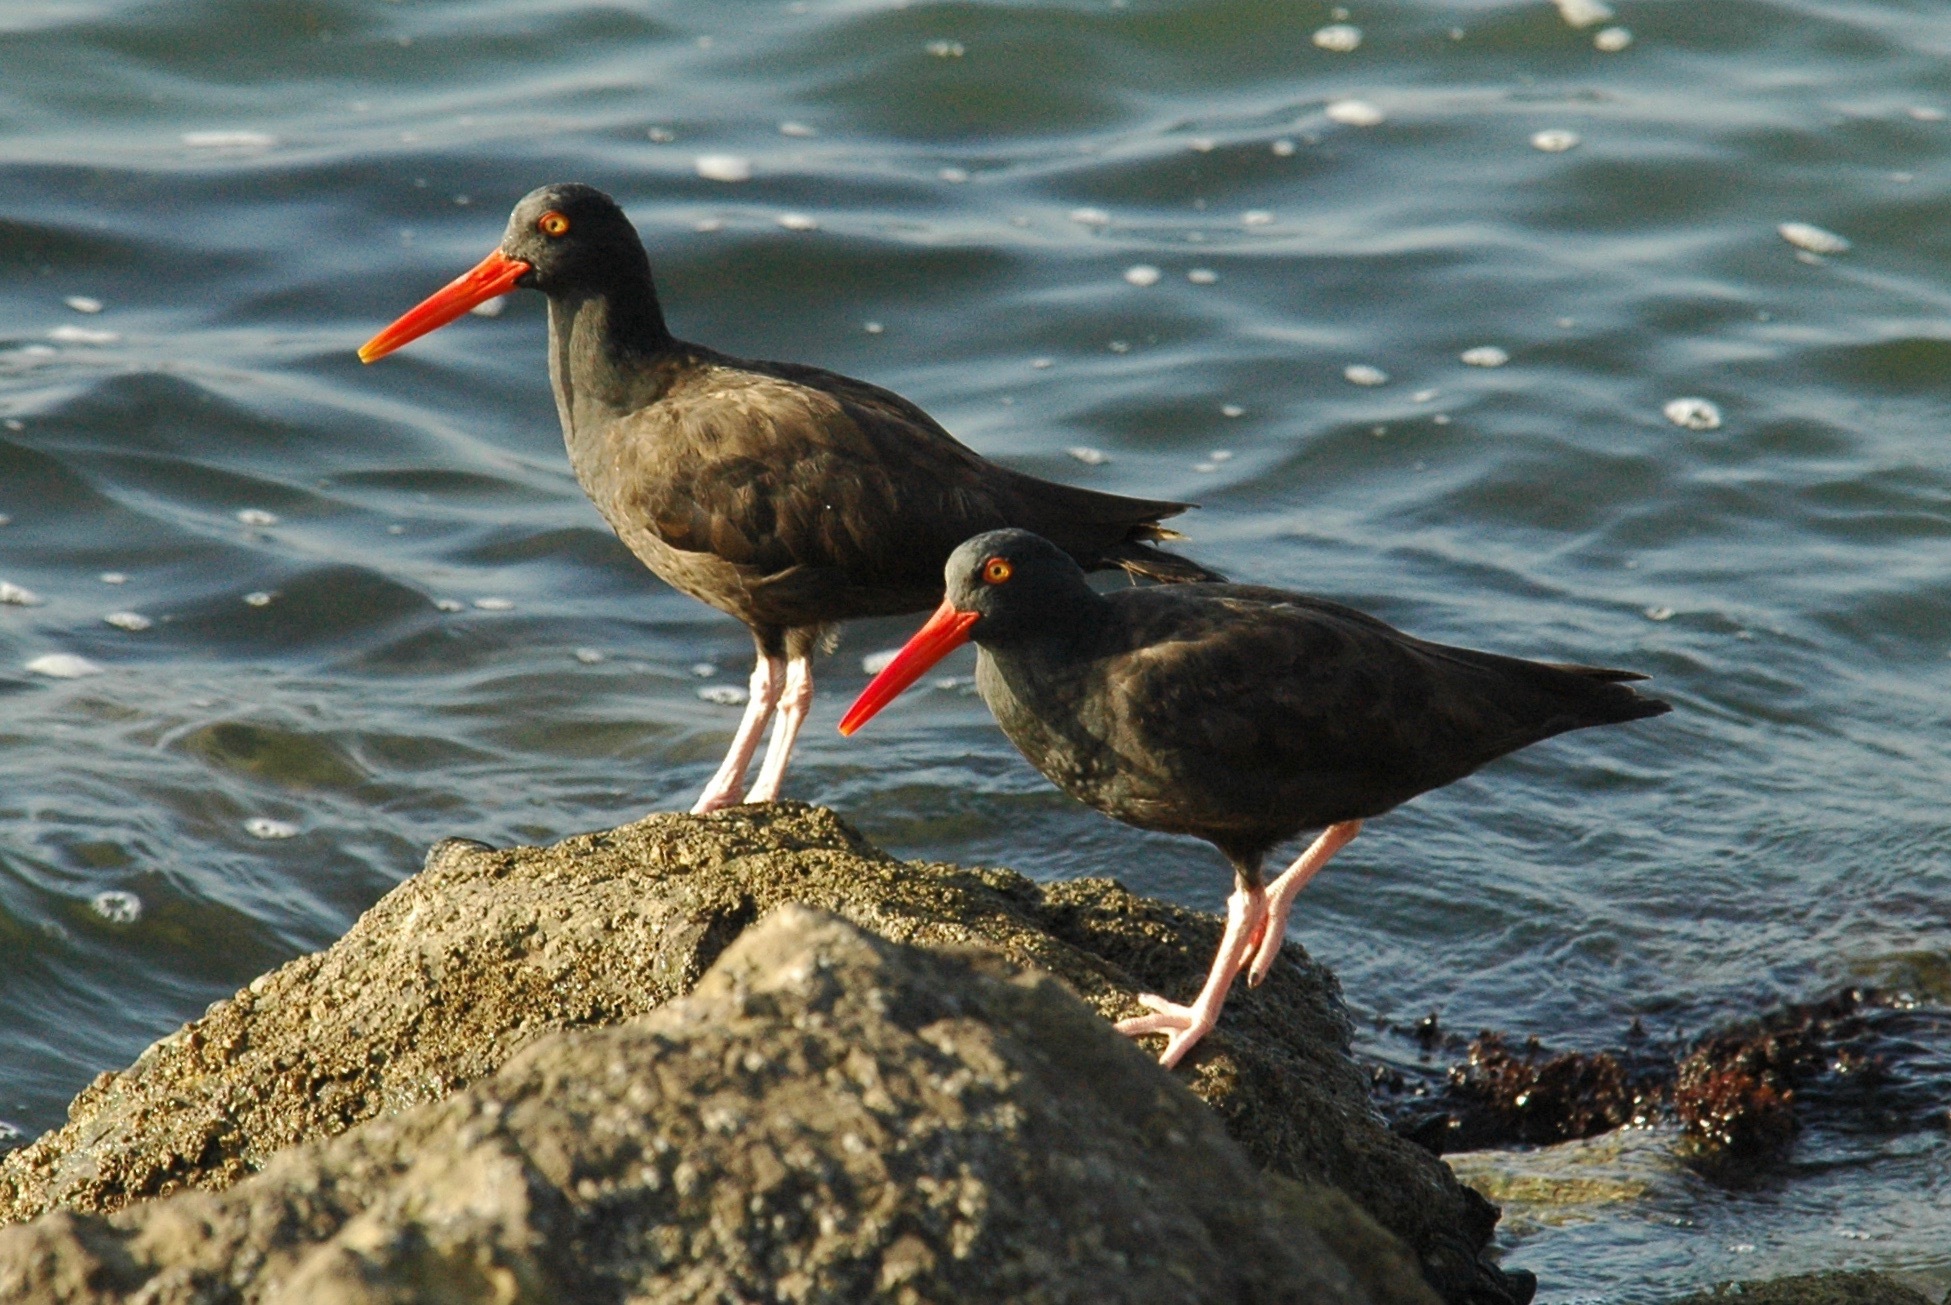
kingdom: Animalia
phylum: Chordata
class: Aves
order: Charadriiformes
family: Haematopodidae
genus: Haematopus
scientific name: Haematopus bachmani
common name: Black oystercatcher
